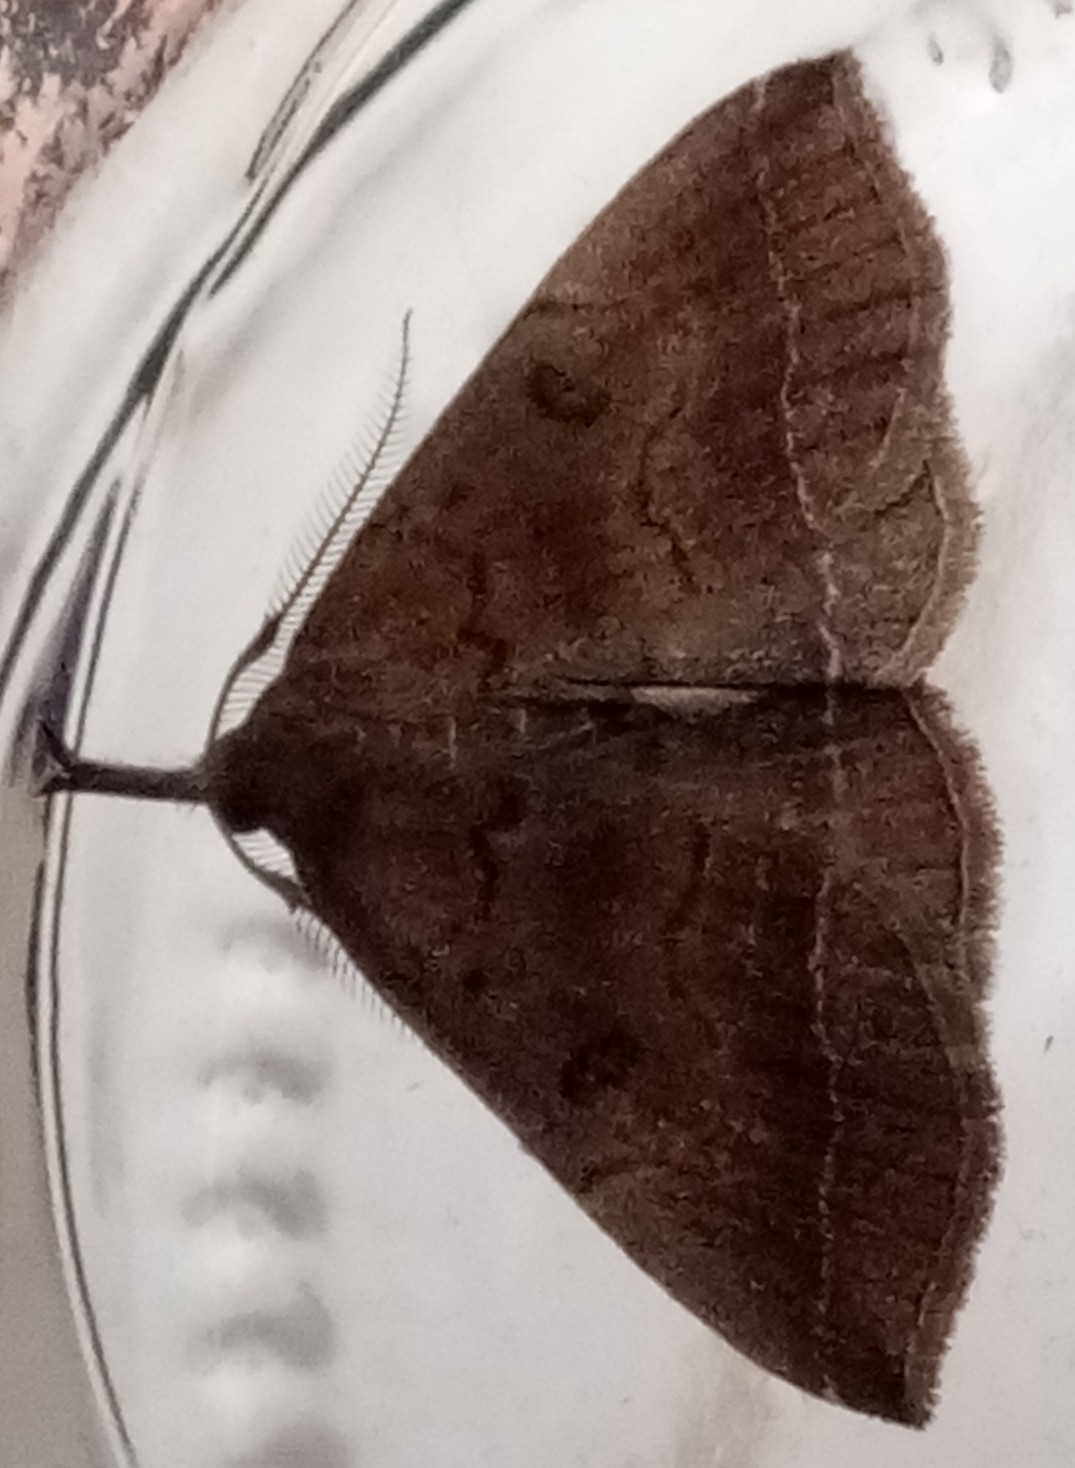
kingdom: Animalia
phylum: Arthropoda
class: Insecta
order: Lepidoptera
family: Erebidae
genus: Pechipogo
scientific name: Pechipogo plumigeralis
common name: Plumed fan-foot
